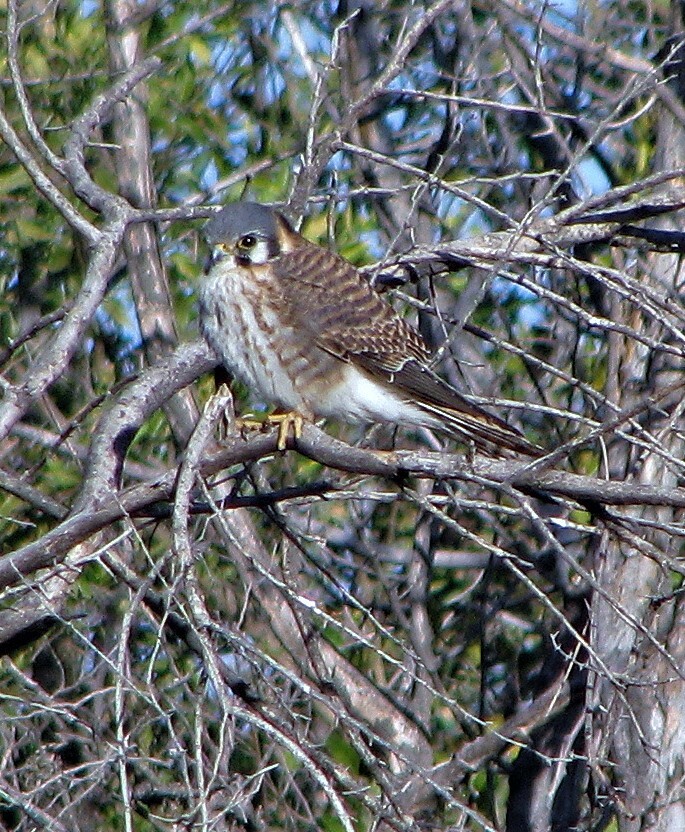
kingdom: Animalia
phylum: Chordata
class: Aves
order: Falconiformes
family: Falconidae
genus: Falco
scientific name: Falco sparverius
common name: American kestrel
